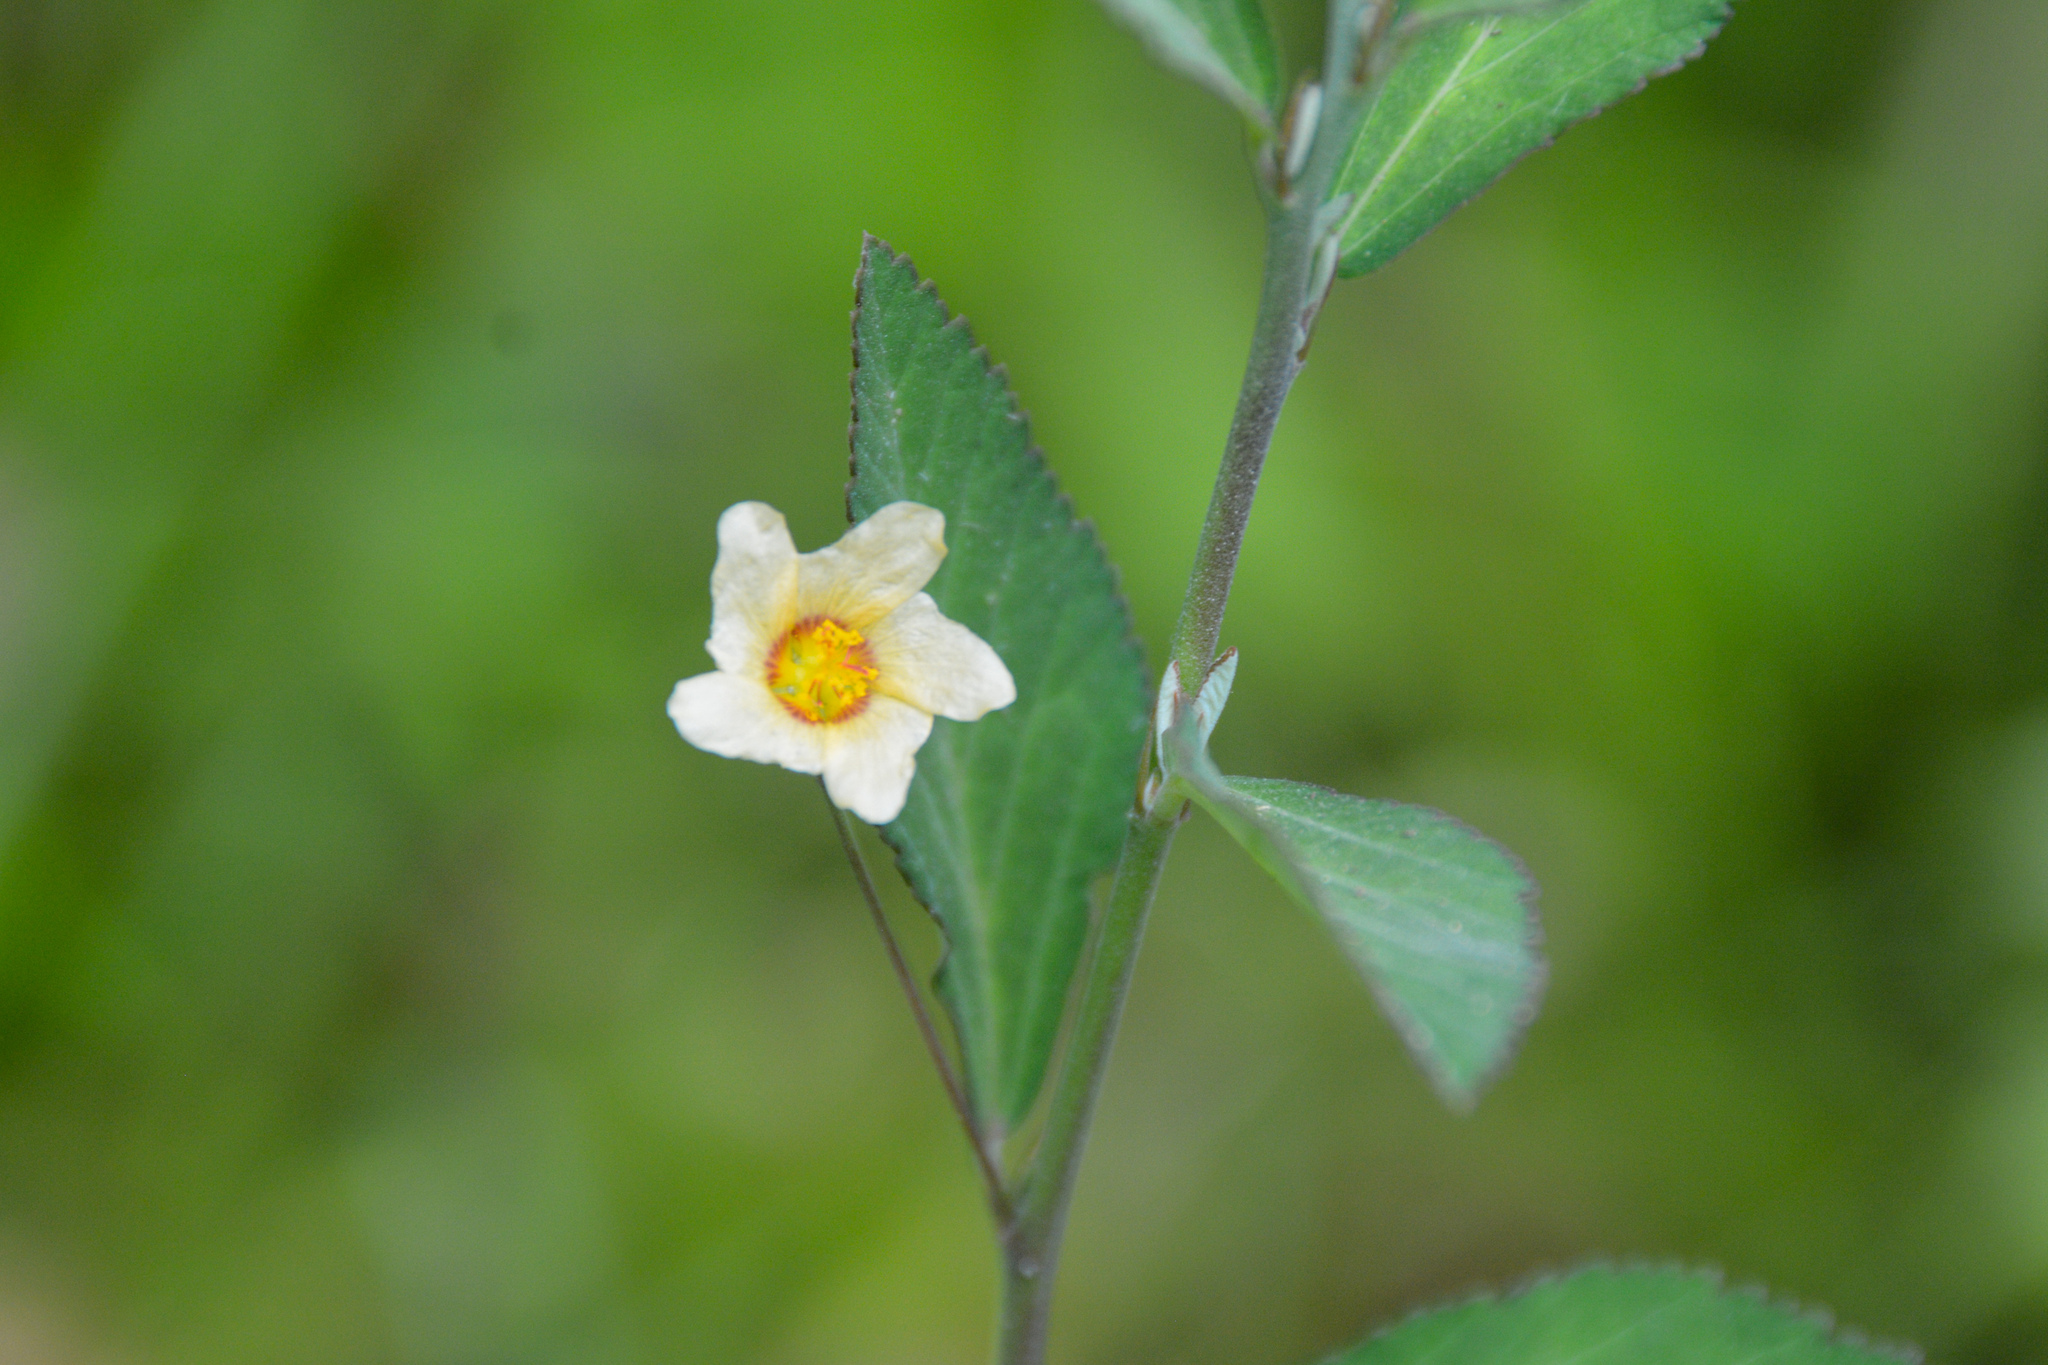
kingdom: Plantae
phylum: Tracheophyta
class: Magnoliopsida
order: Malvales
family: Malvaceae
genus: Sida
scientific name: Sida rhombifolia
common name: Queensland-hemp
